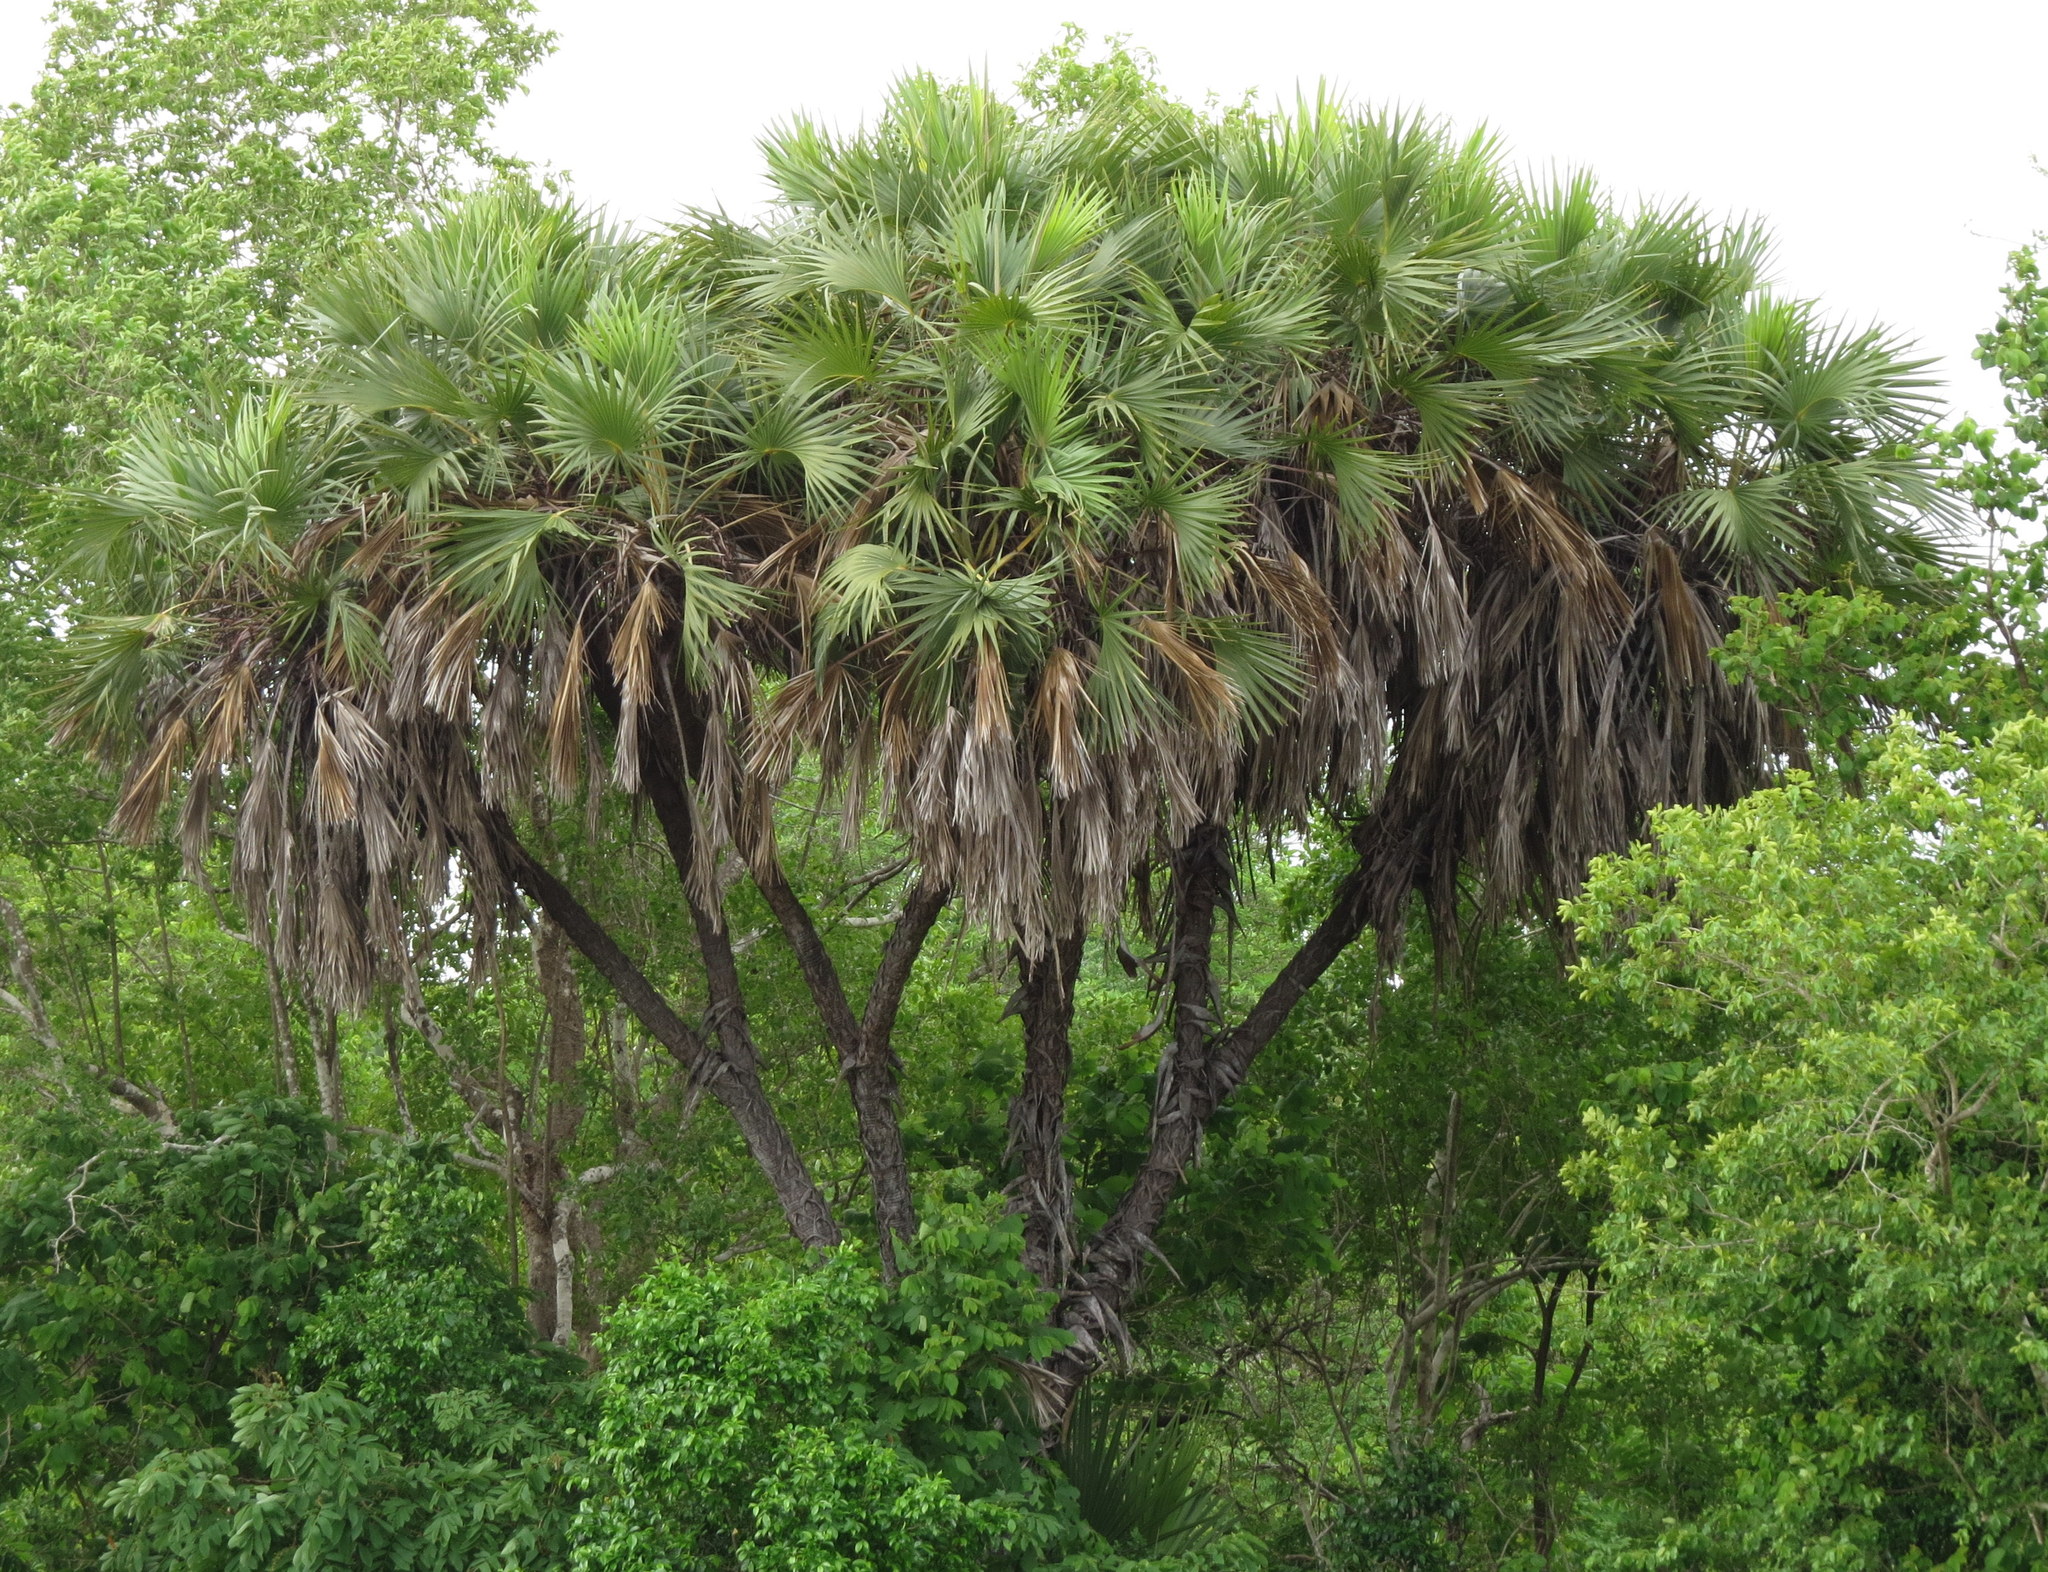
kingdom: Plantae
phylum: Tracheophyta
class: Liliopsida
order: Arecales
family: Arecaceae
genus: Hyphaene
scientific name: Hyphaene compressa
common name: Doum palm
